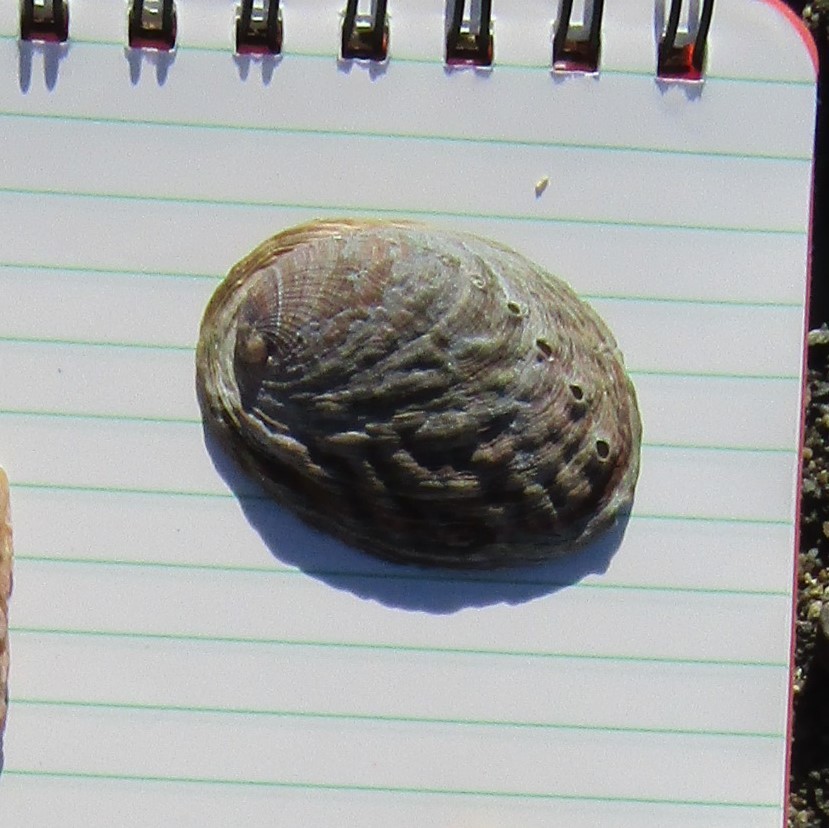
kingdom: Animalia
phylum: Mollusca
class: Gastropoda
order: Lepetellida
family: Haliotidae
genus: Haliotis
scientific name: Haliotis iris
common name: Abalone
